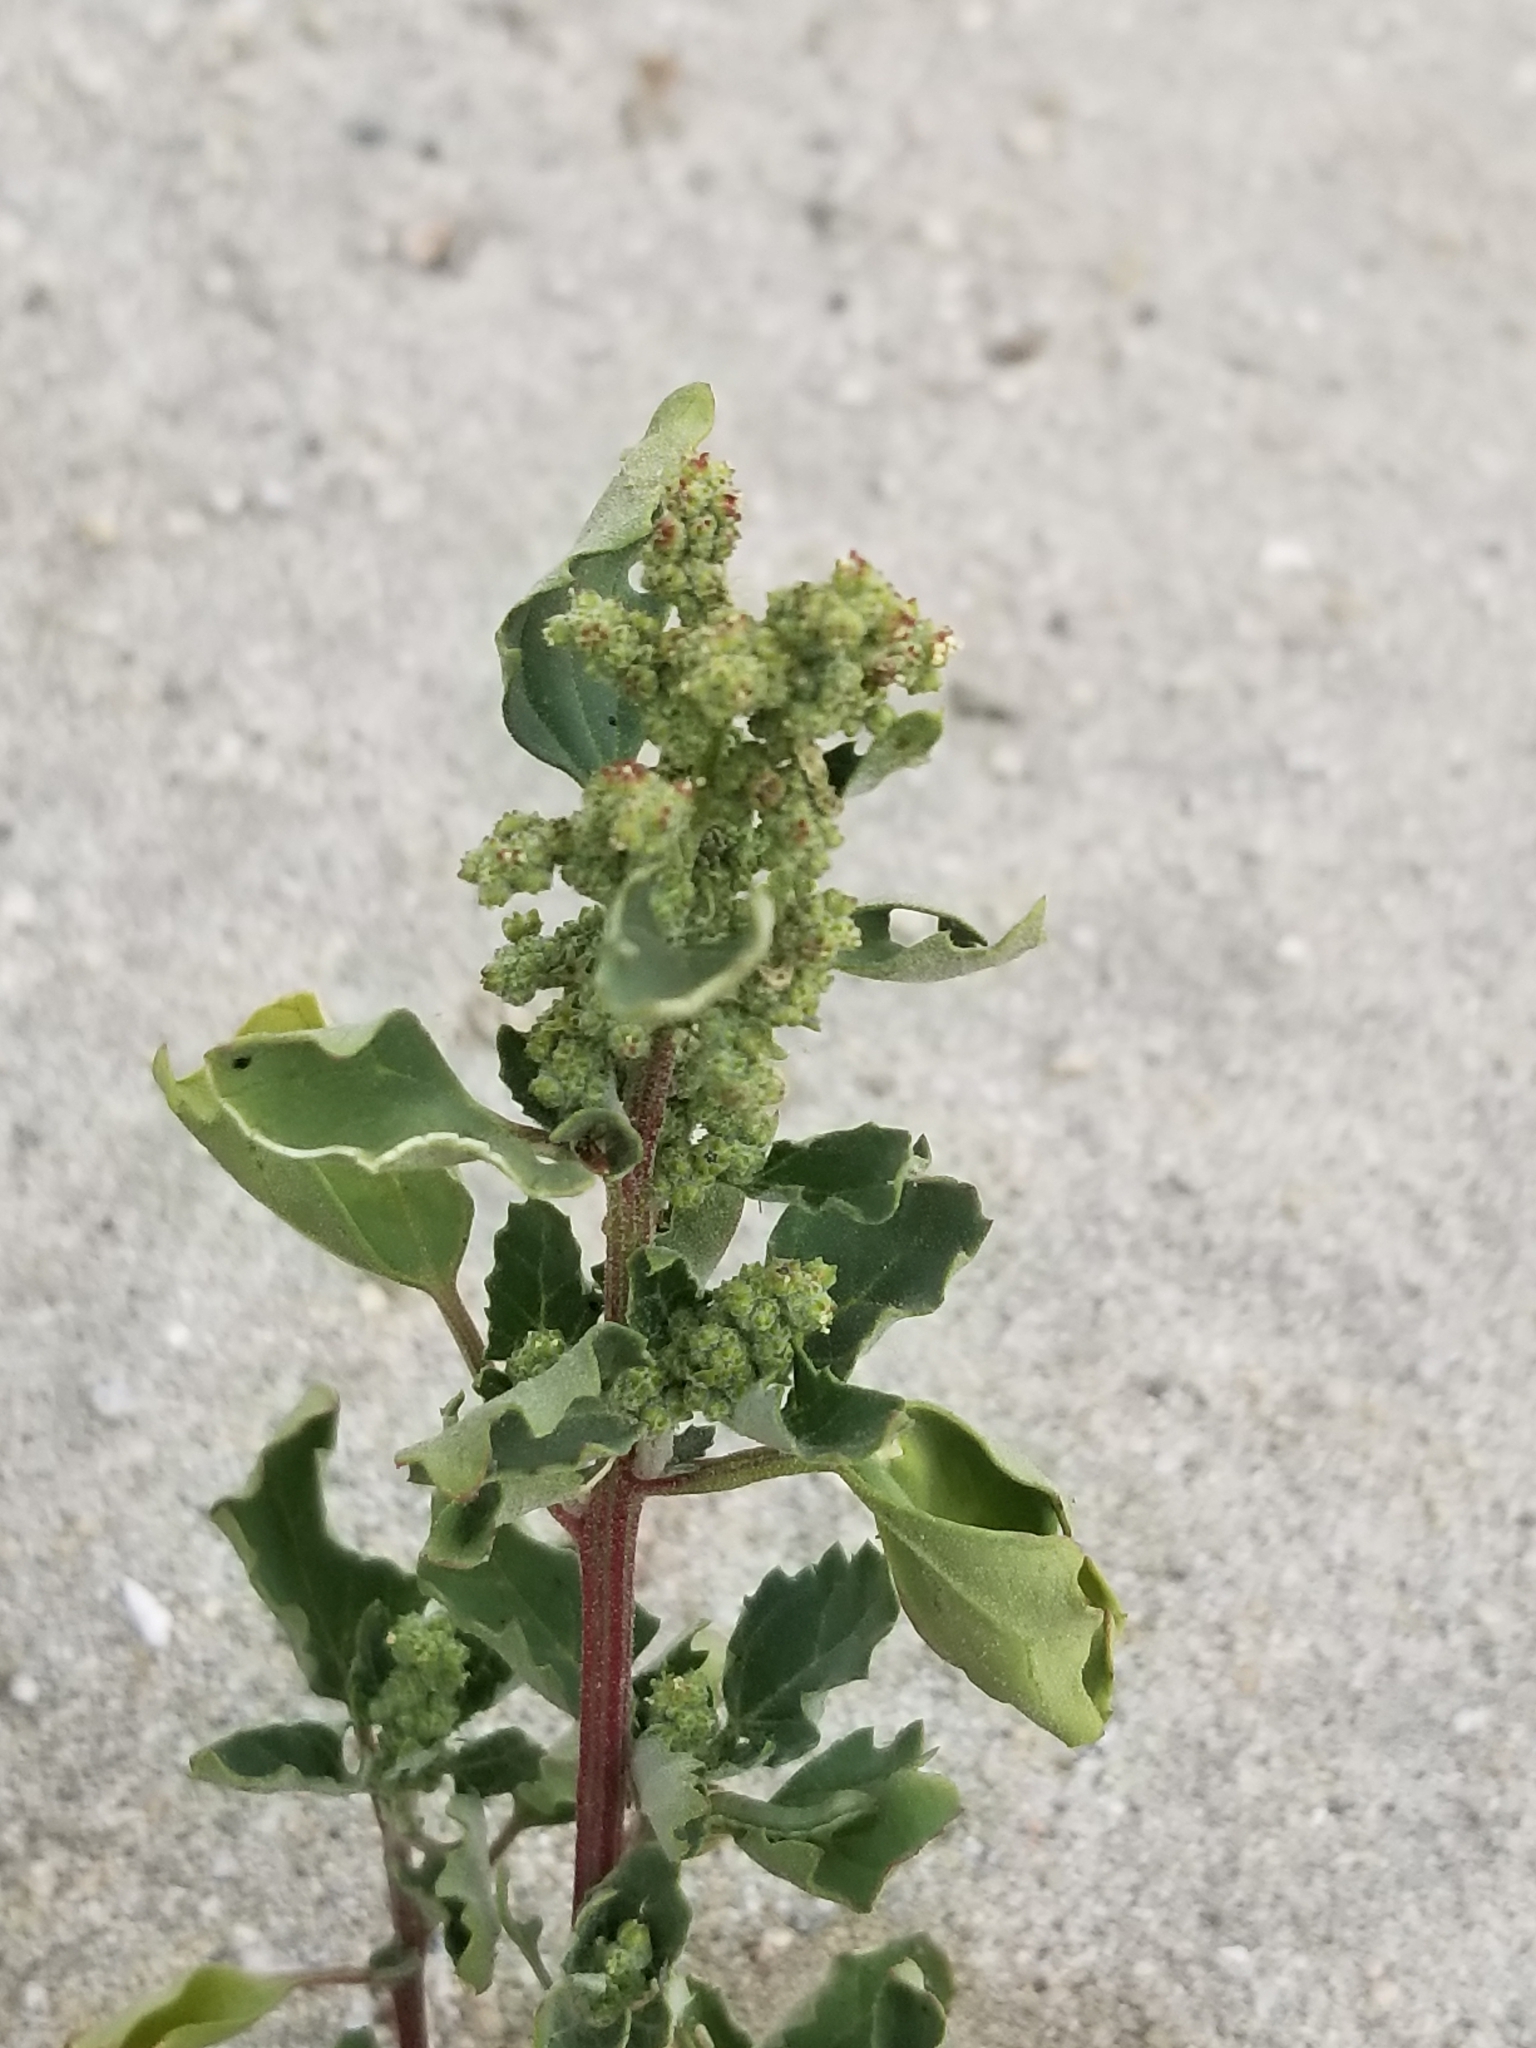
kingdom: Plantae
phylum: Tracheophyta
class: Magnoliopsida
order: Caryophyllales
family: Amaranthaceae
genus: Chenopodiastrum
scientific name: Chenopodiastrum murale
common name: Sowbane
